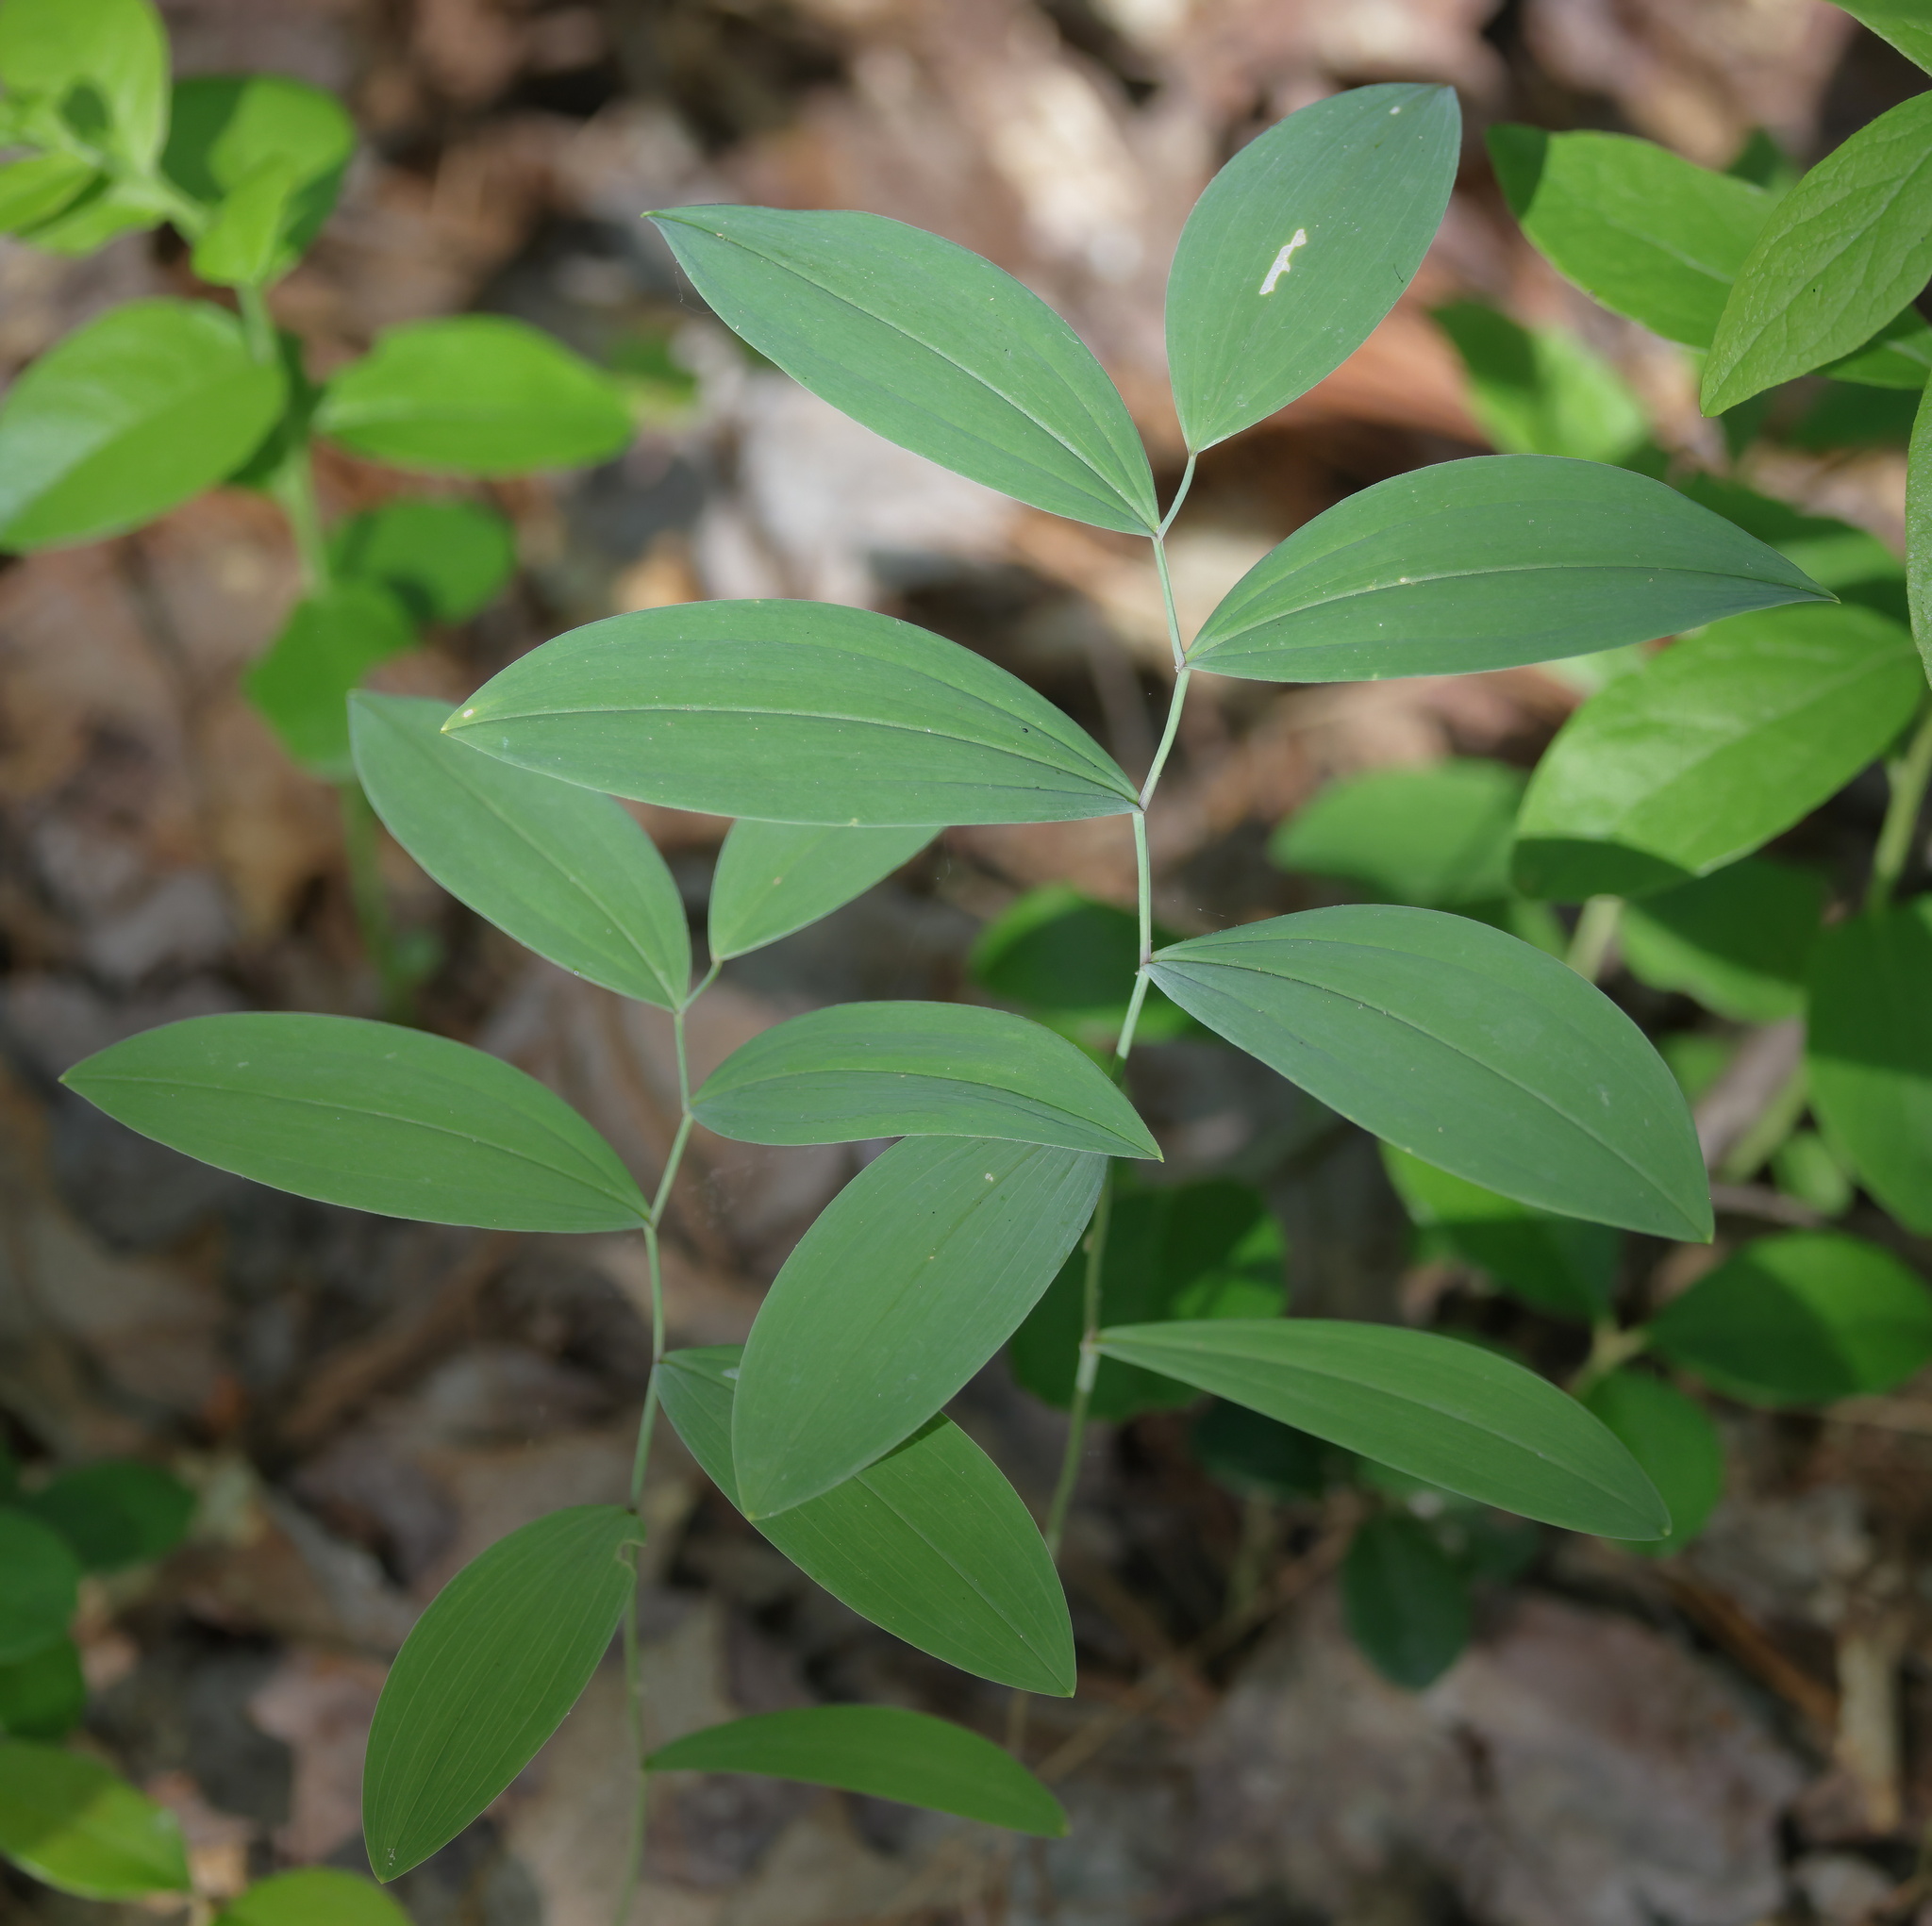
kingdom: Plantae
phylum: Tracheophyta
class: Liliopsida
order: Liliales
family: Colchicaceae
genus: Uvularia
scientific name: Uvularia sessilifolia
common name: Straw-lily
